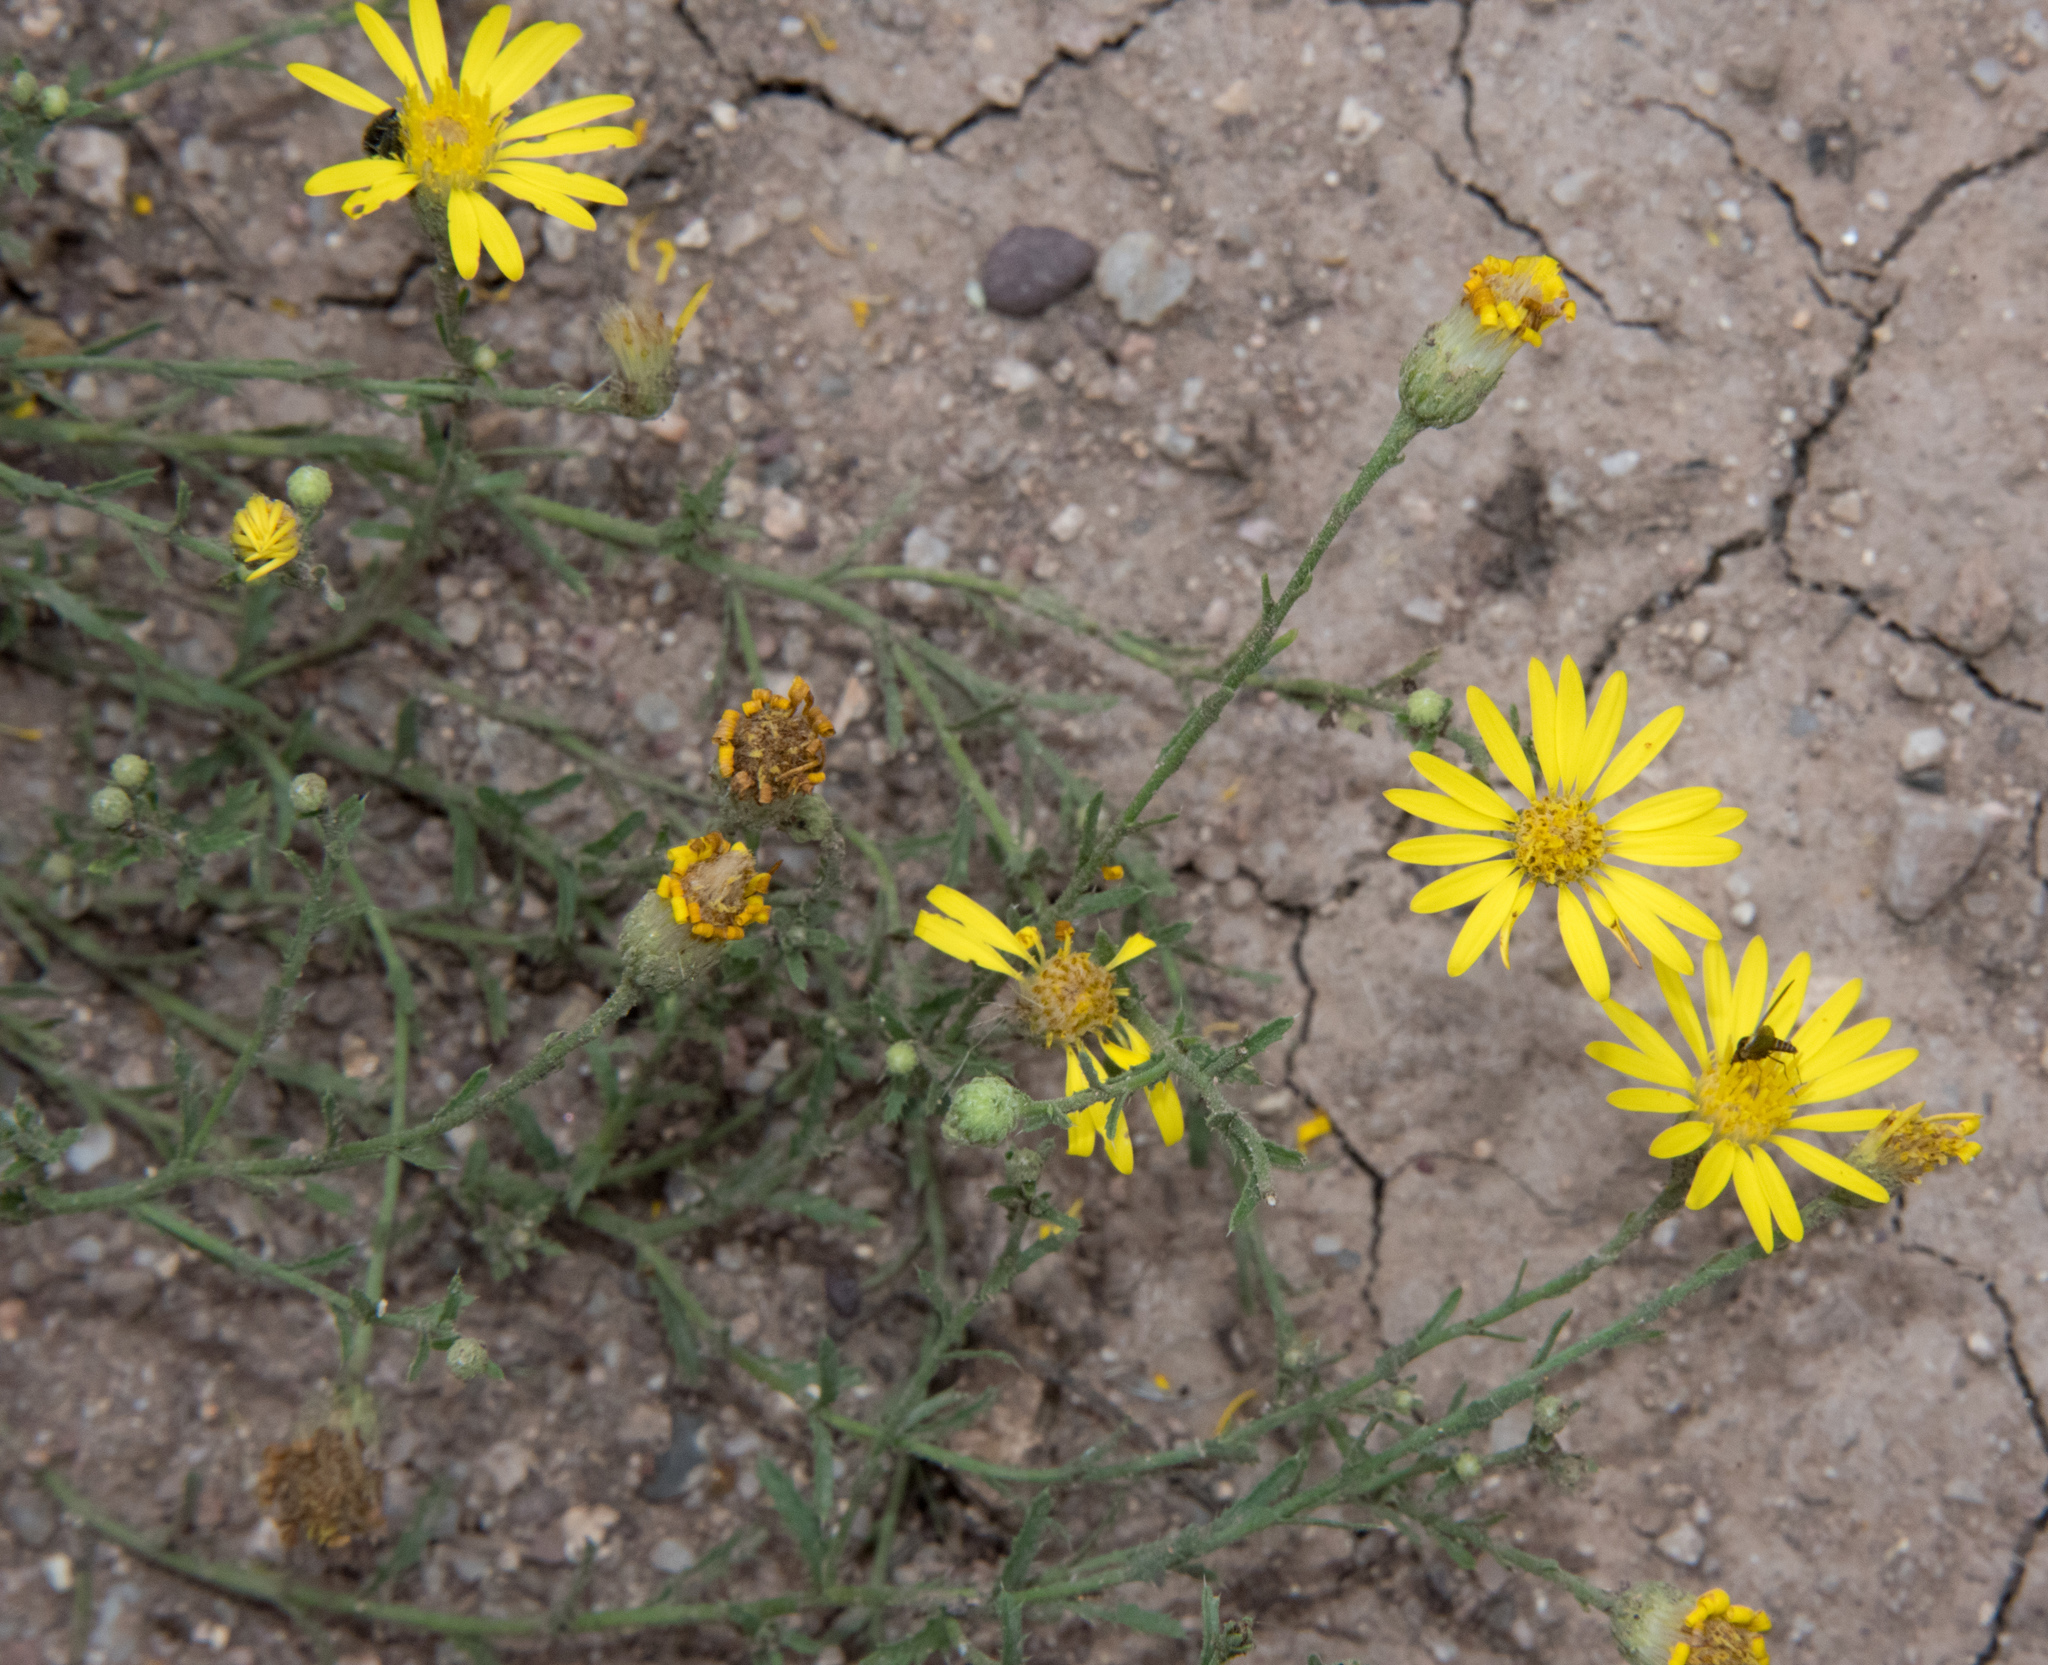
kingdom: Plantae
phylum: Tracheophyta
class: Magnoliopsida
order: Asterales
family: Asteraceae
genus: Xanthisma
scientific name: Xanthisma spinulosum
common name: Spiny goldenweed
